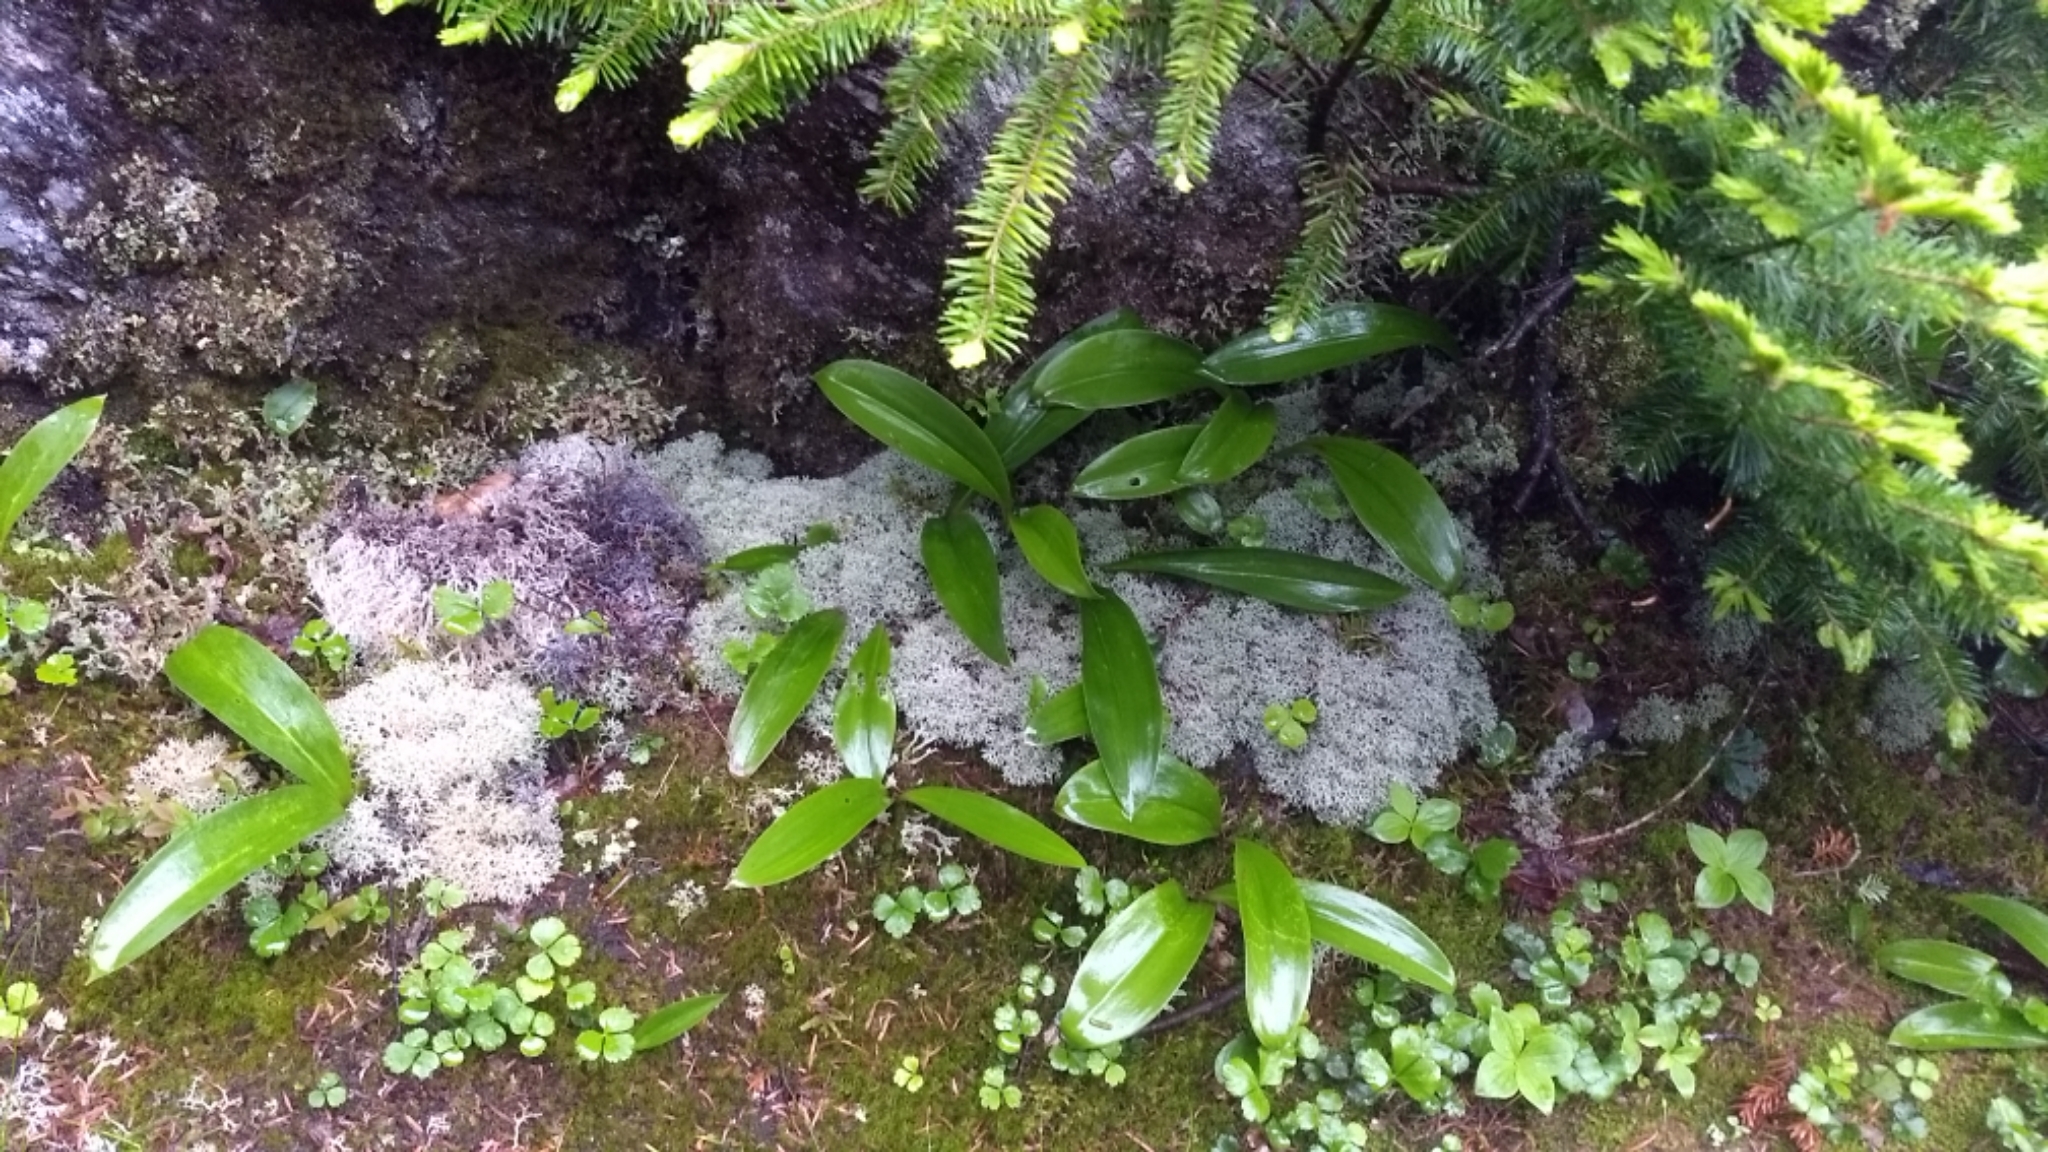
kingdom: Fungi
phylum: Ascomycota
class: Lecanoromycetes
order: Lecanorales
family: Cladoniaceae
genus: Cladonia
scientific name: Cladonia rangiferina
